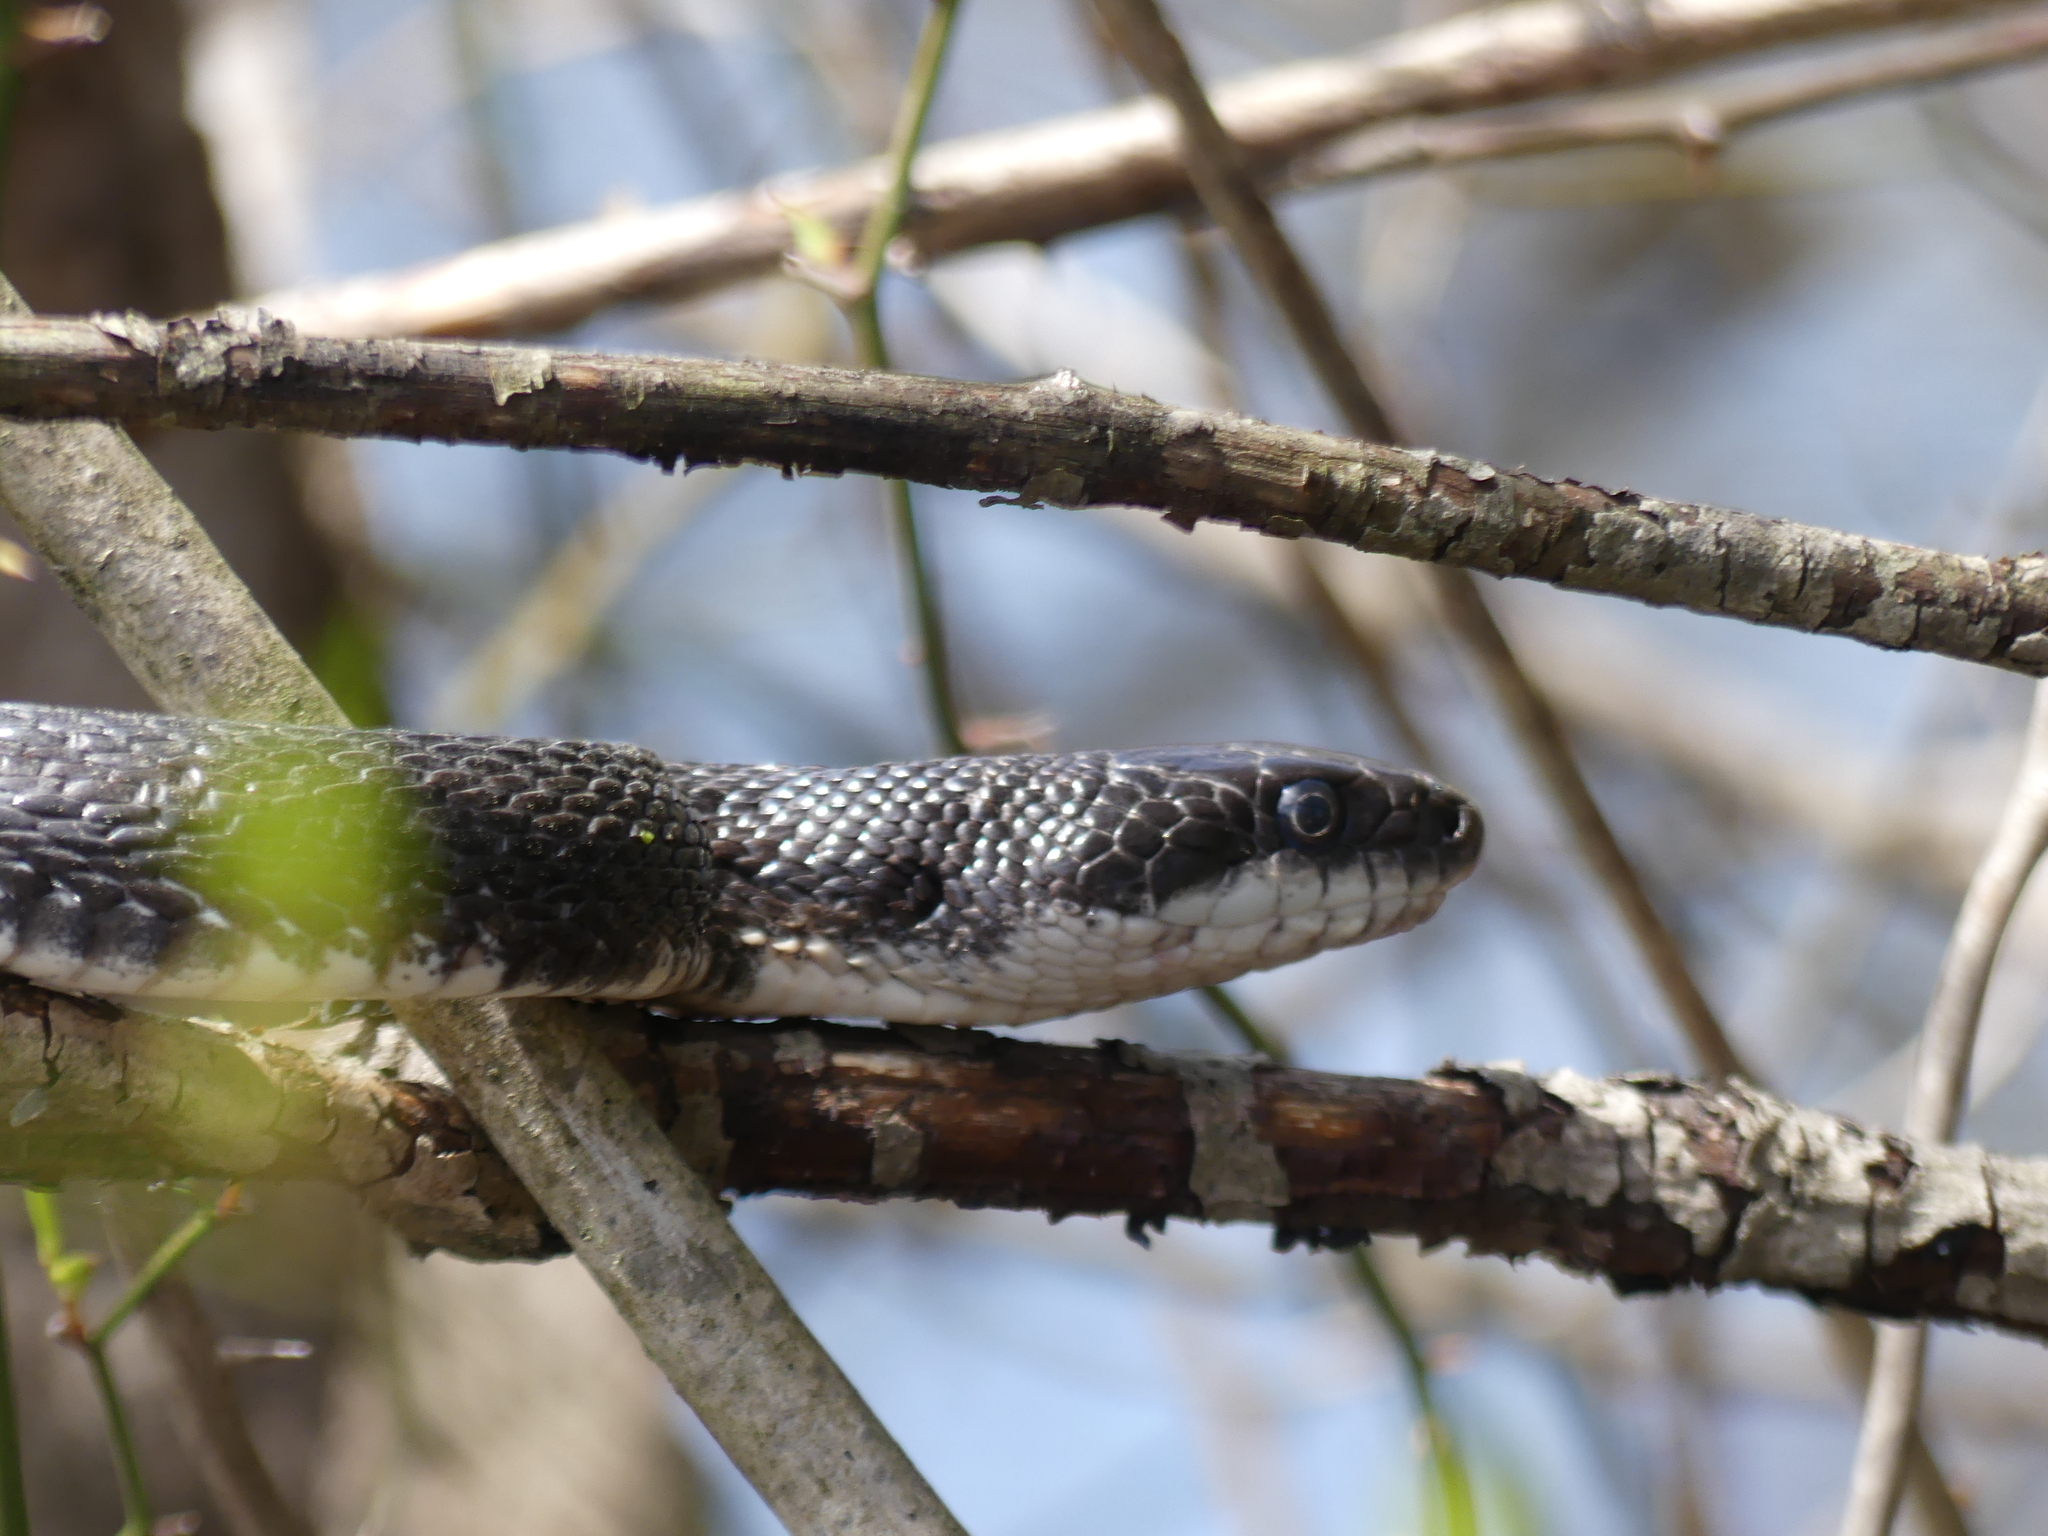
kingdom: Animalia
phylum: Chordata
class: Squamata
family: Colubridae
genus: Pantherophis
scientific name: Pantherophis alleghaniensis
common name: Eastern rat snake
